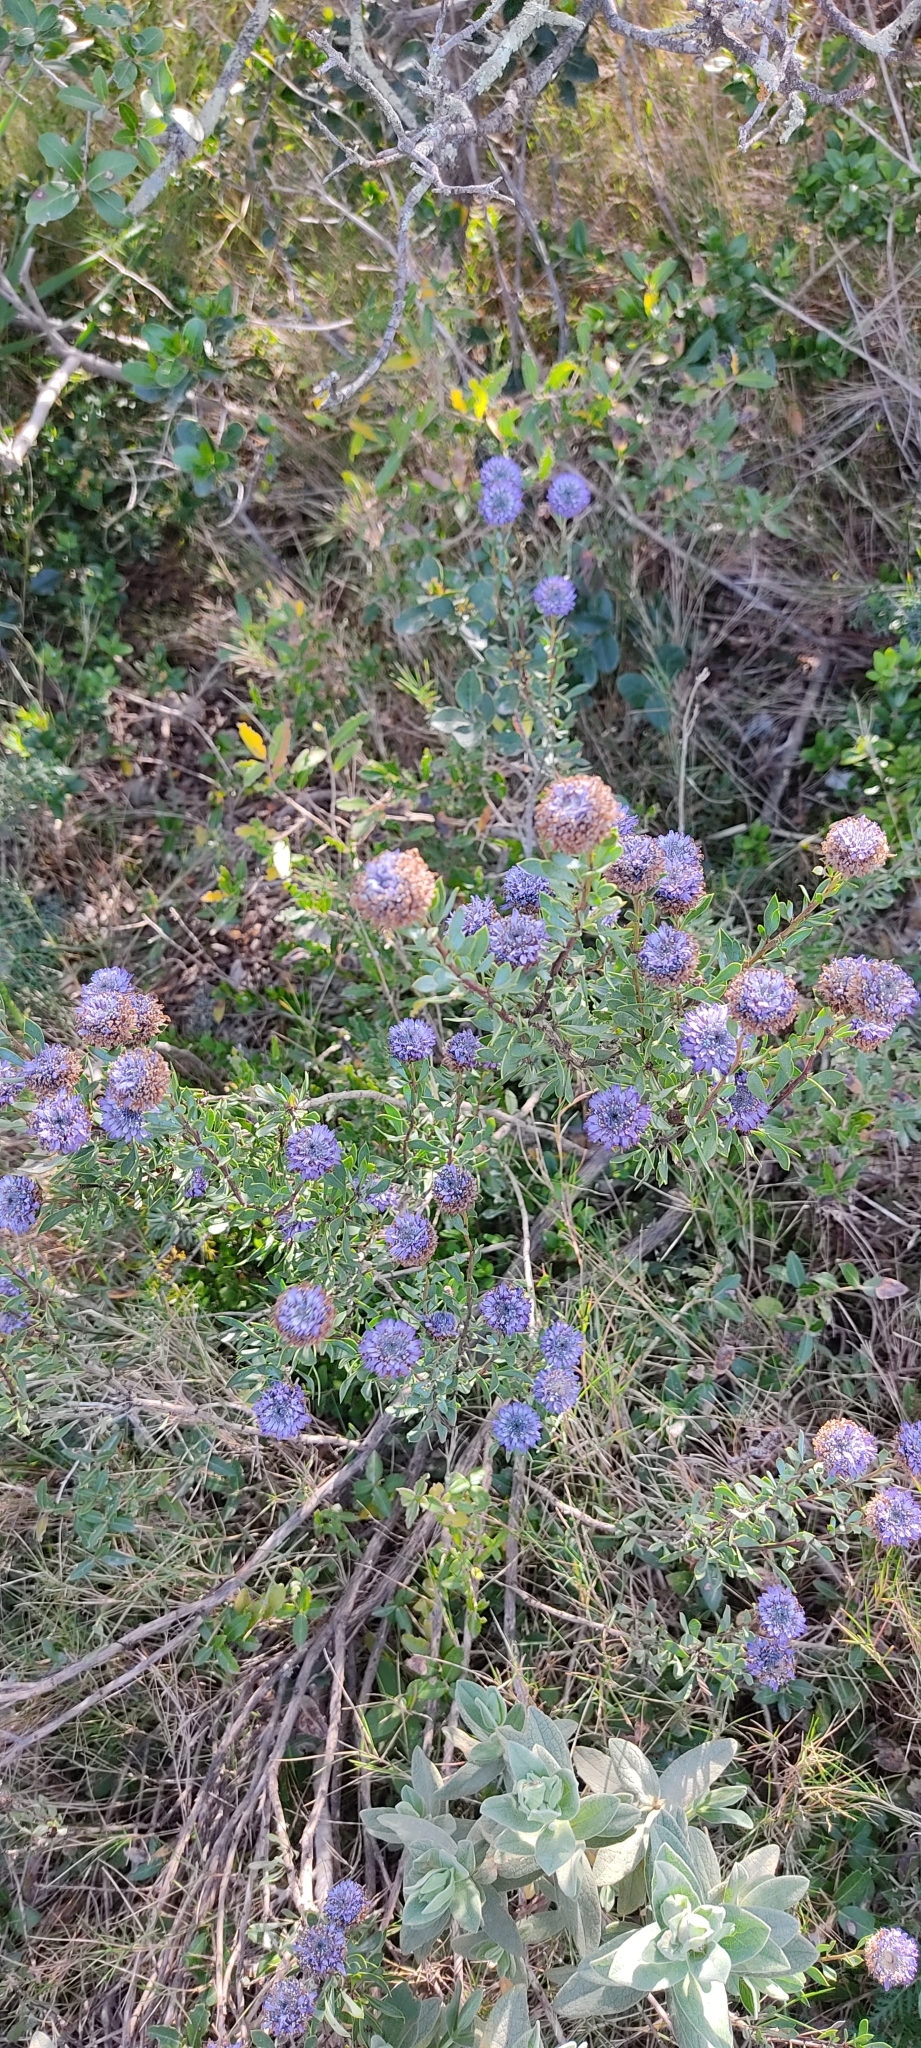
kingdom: Plantae
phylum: Tracheophyta
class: Magnoliopsida
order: Lamiales
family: Plantaginaceae
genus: Globularia
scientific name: Globularia alypum
